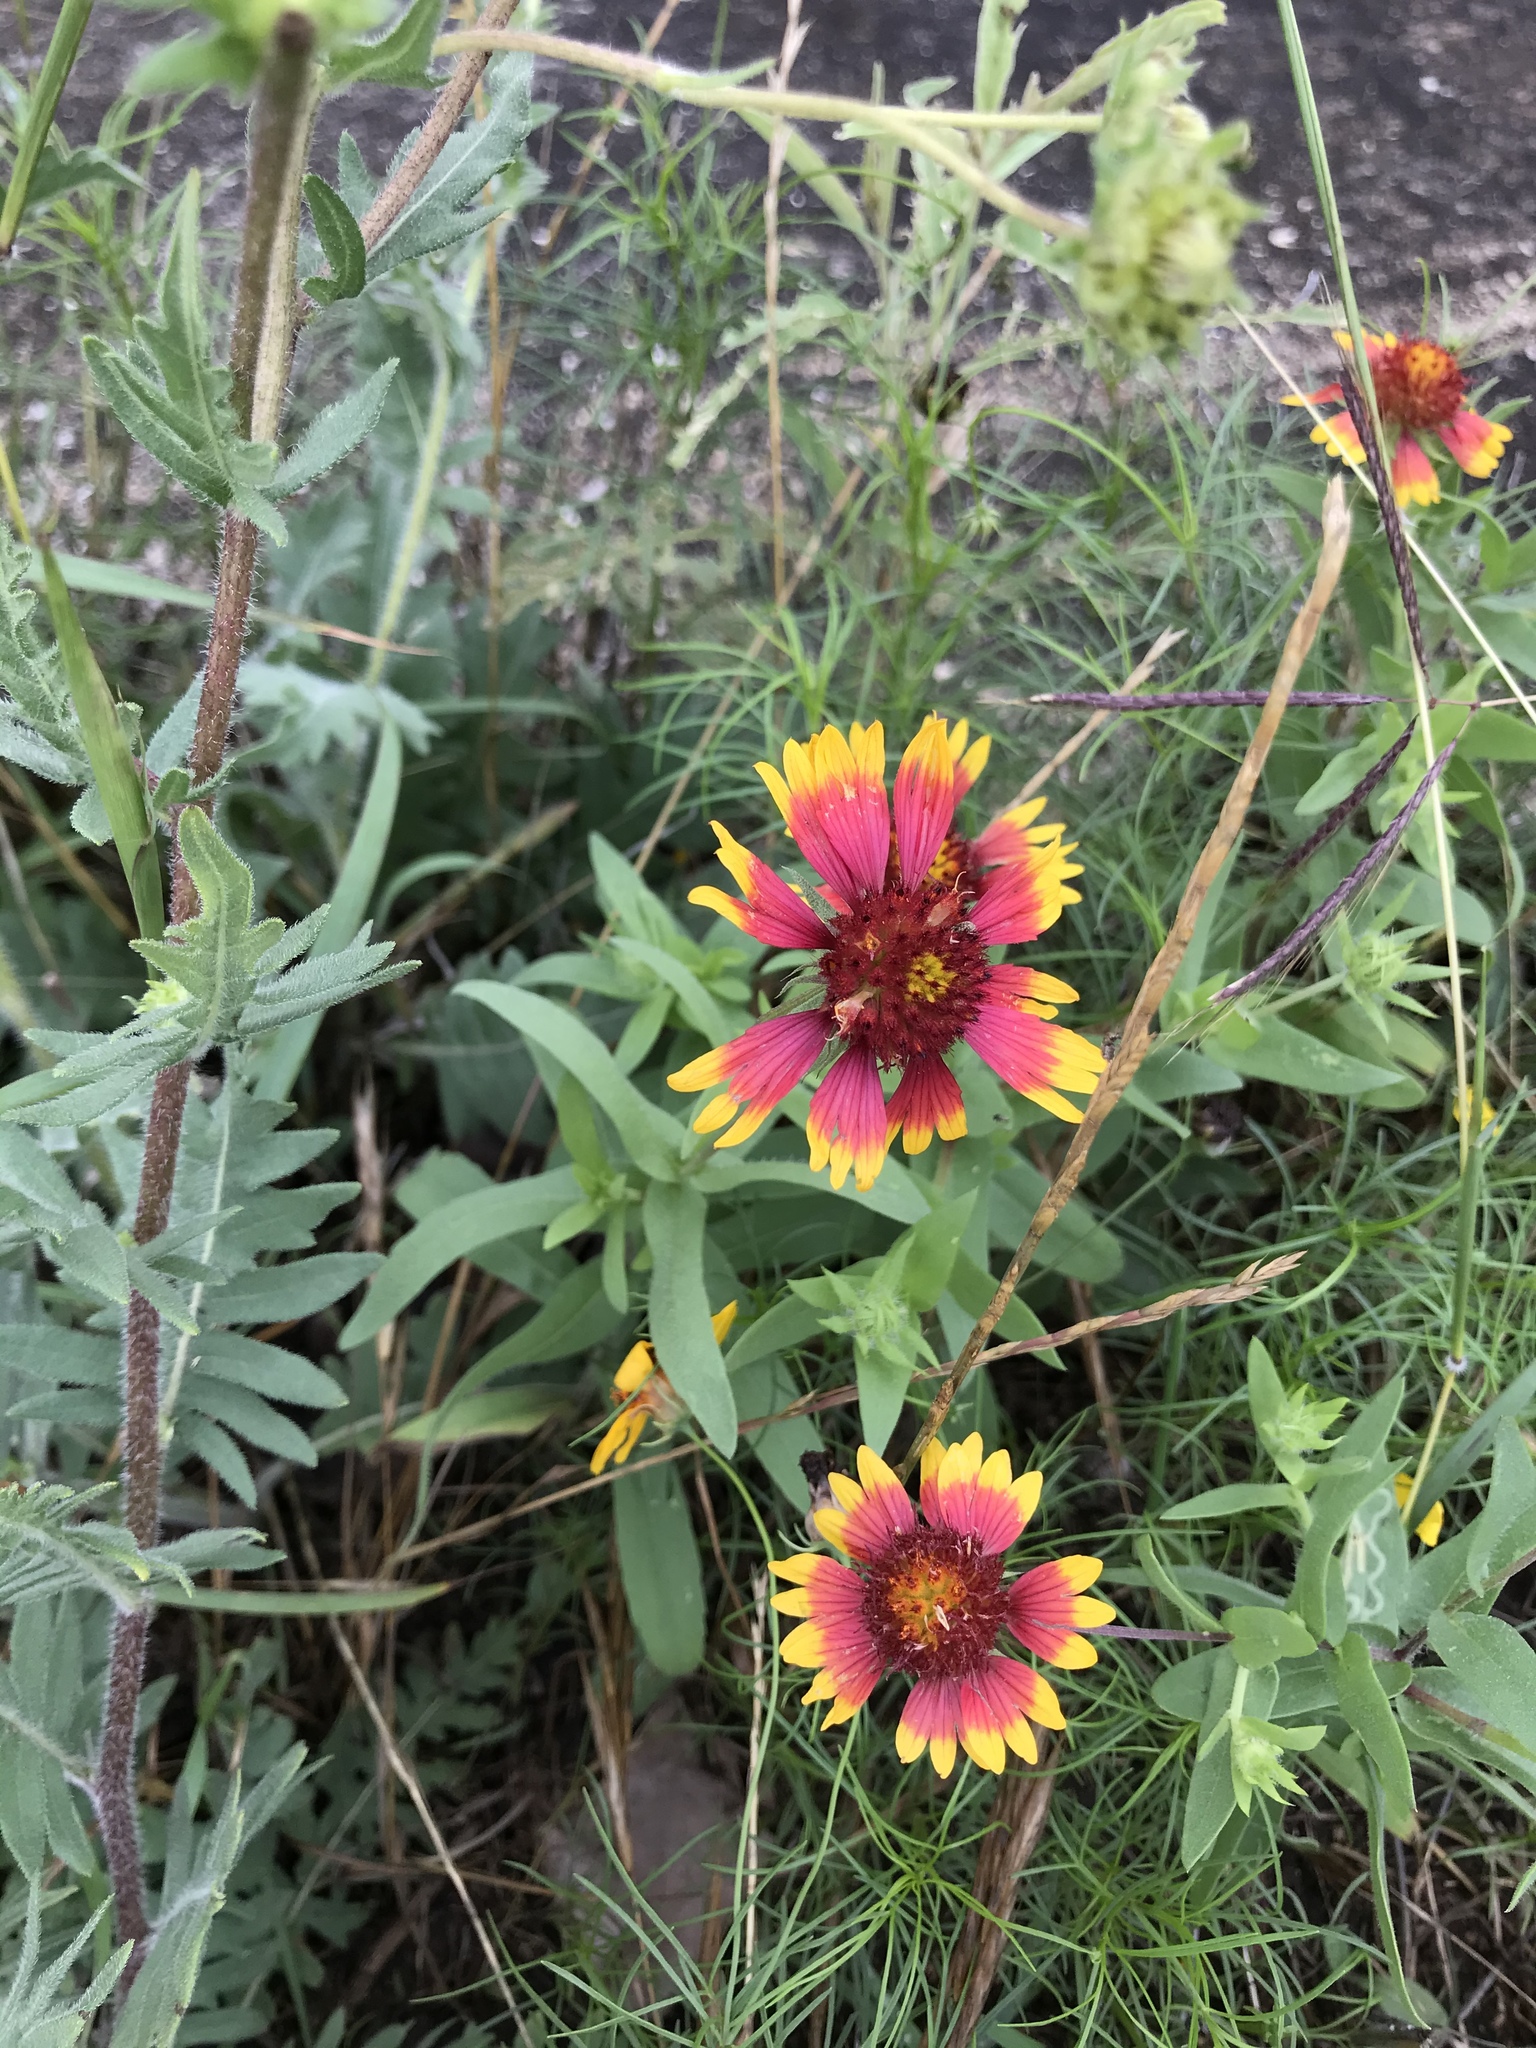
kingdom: Plantae
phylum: Tracheophyta
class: Magnoliopsida
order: Asterales
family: Asteraceae
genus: Gaillardia
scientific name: Gaillardia pulchella
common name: Firewheel
